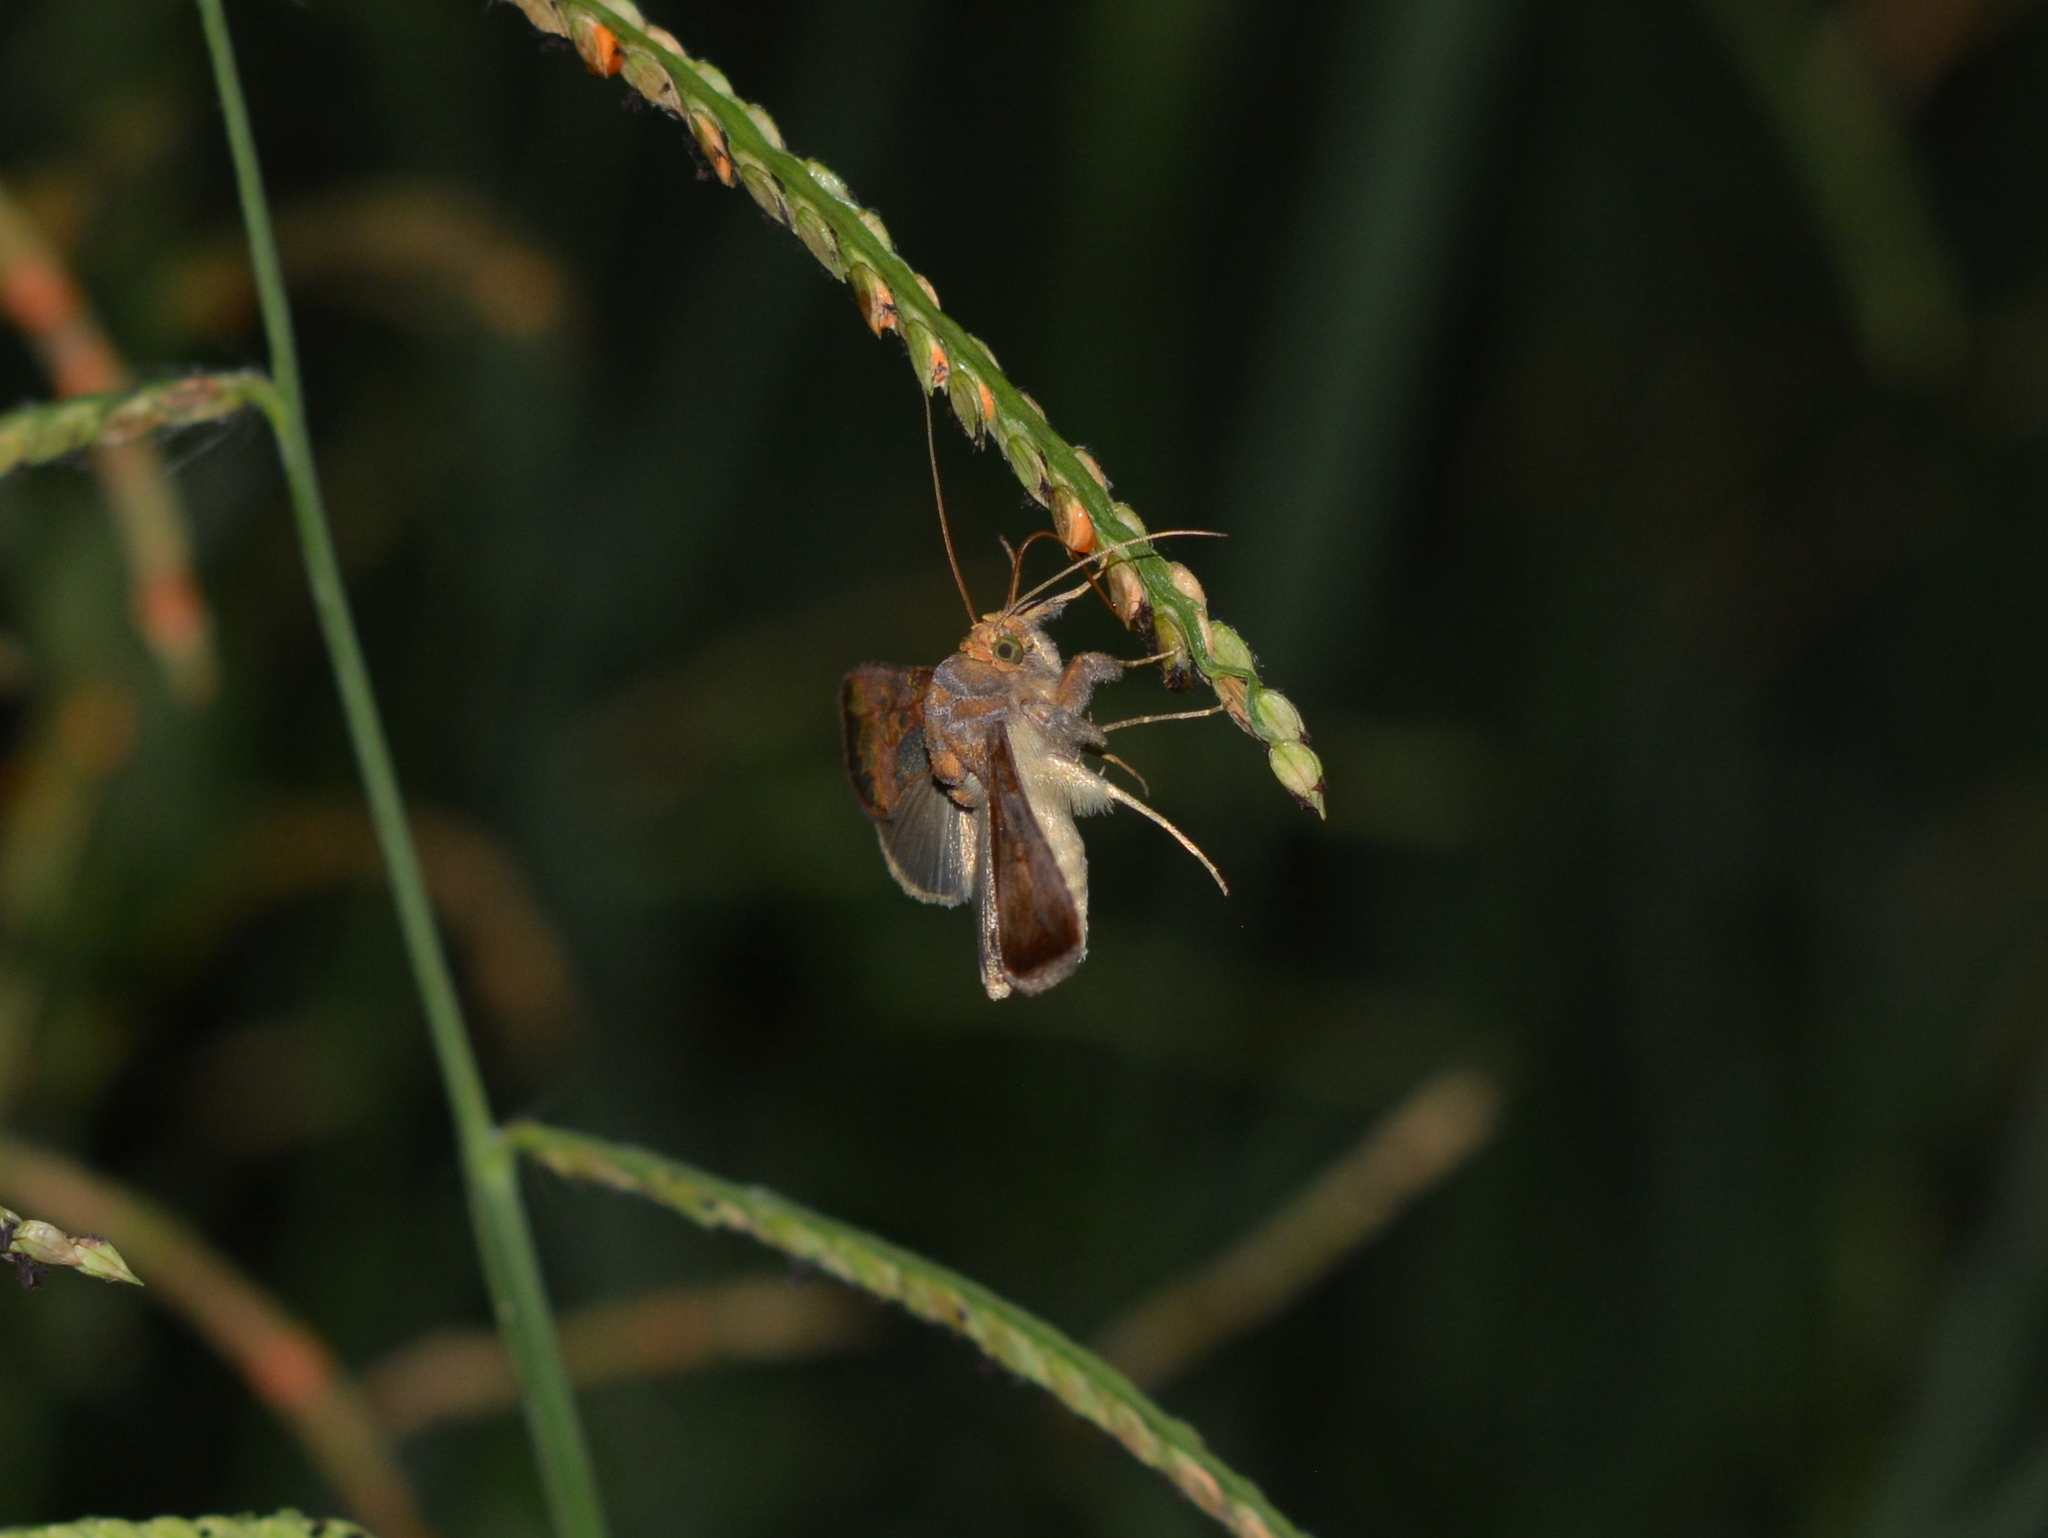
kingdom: Animalia
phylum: Arthropoda
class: Insecta
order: Lepidoptera
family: Noctuidae
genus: Argyrogramma
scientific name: Argyrogramma verruca
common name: Golden looper moth
